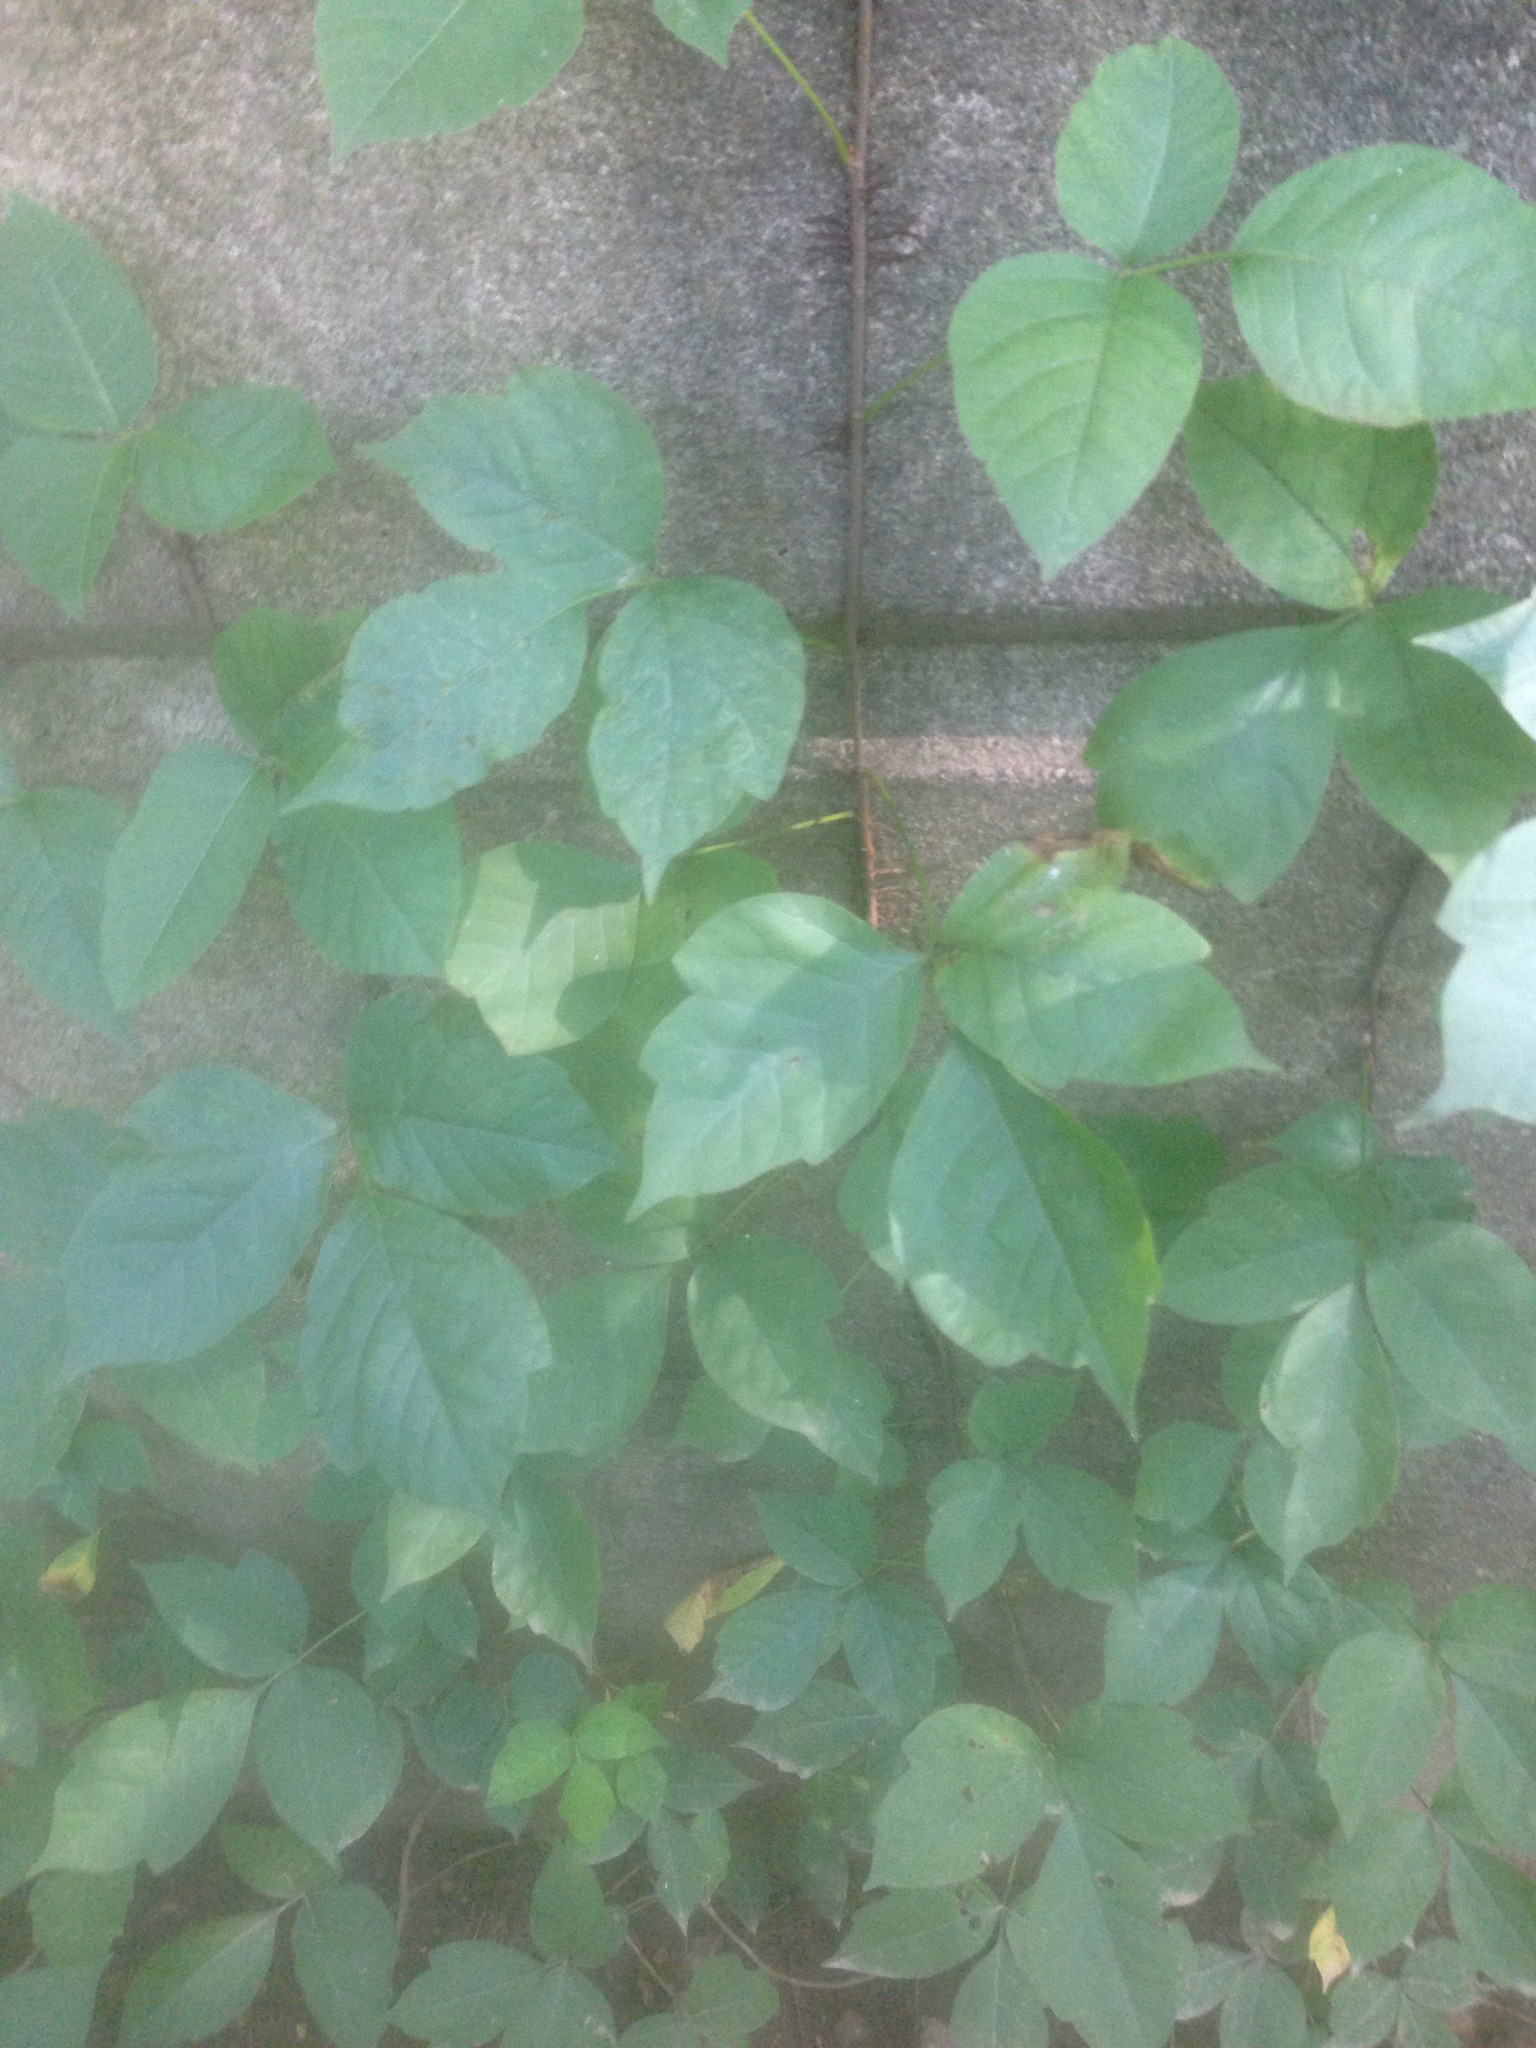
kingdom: Plantae
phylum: Tracheophyta
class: Magnoliopsida
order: Sapindales
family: Anacardiaceae
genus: Toxicodendron
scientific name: Toxicodendron radicans
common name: Poison ivy
